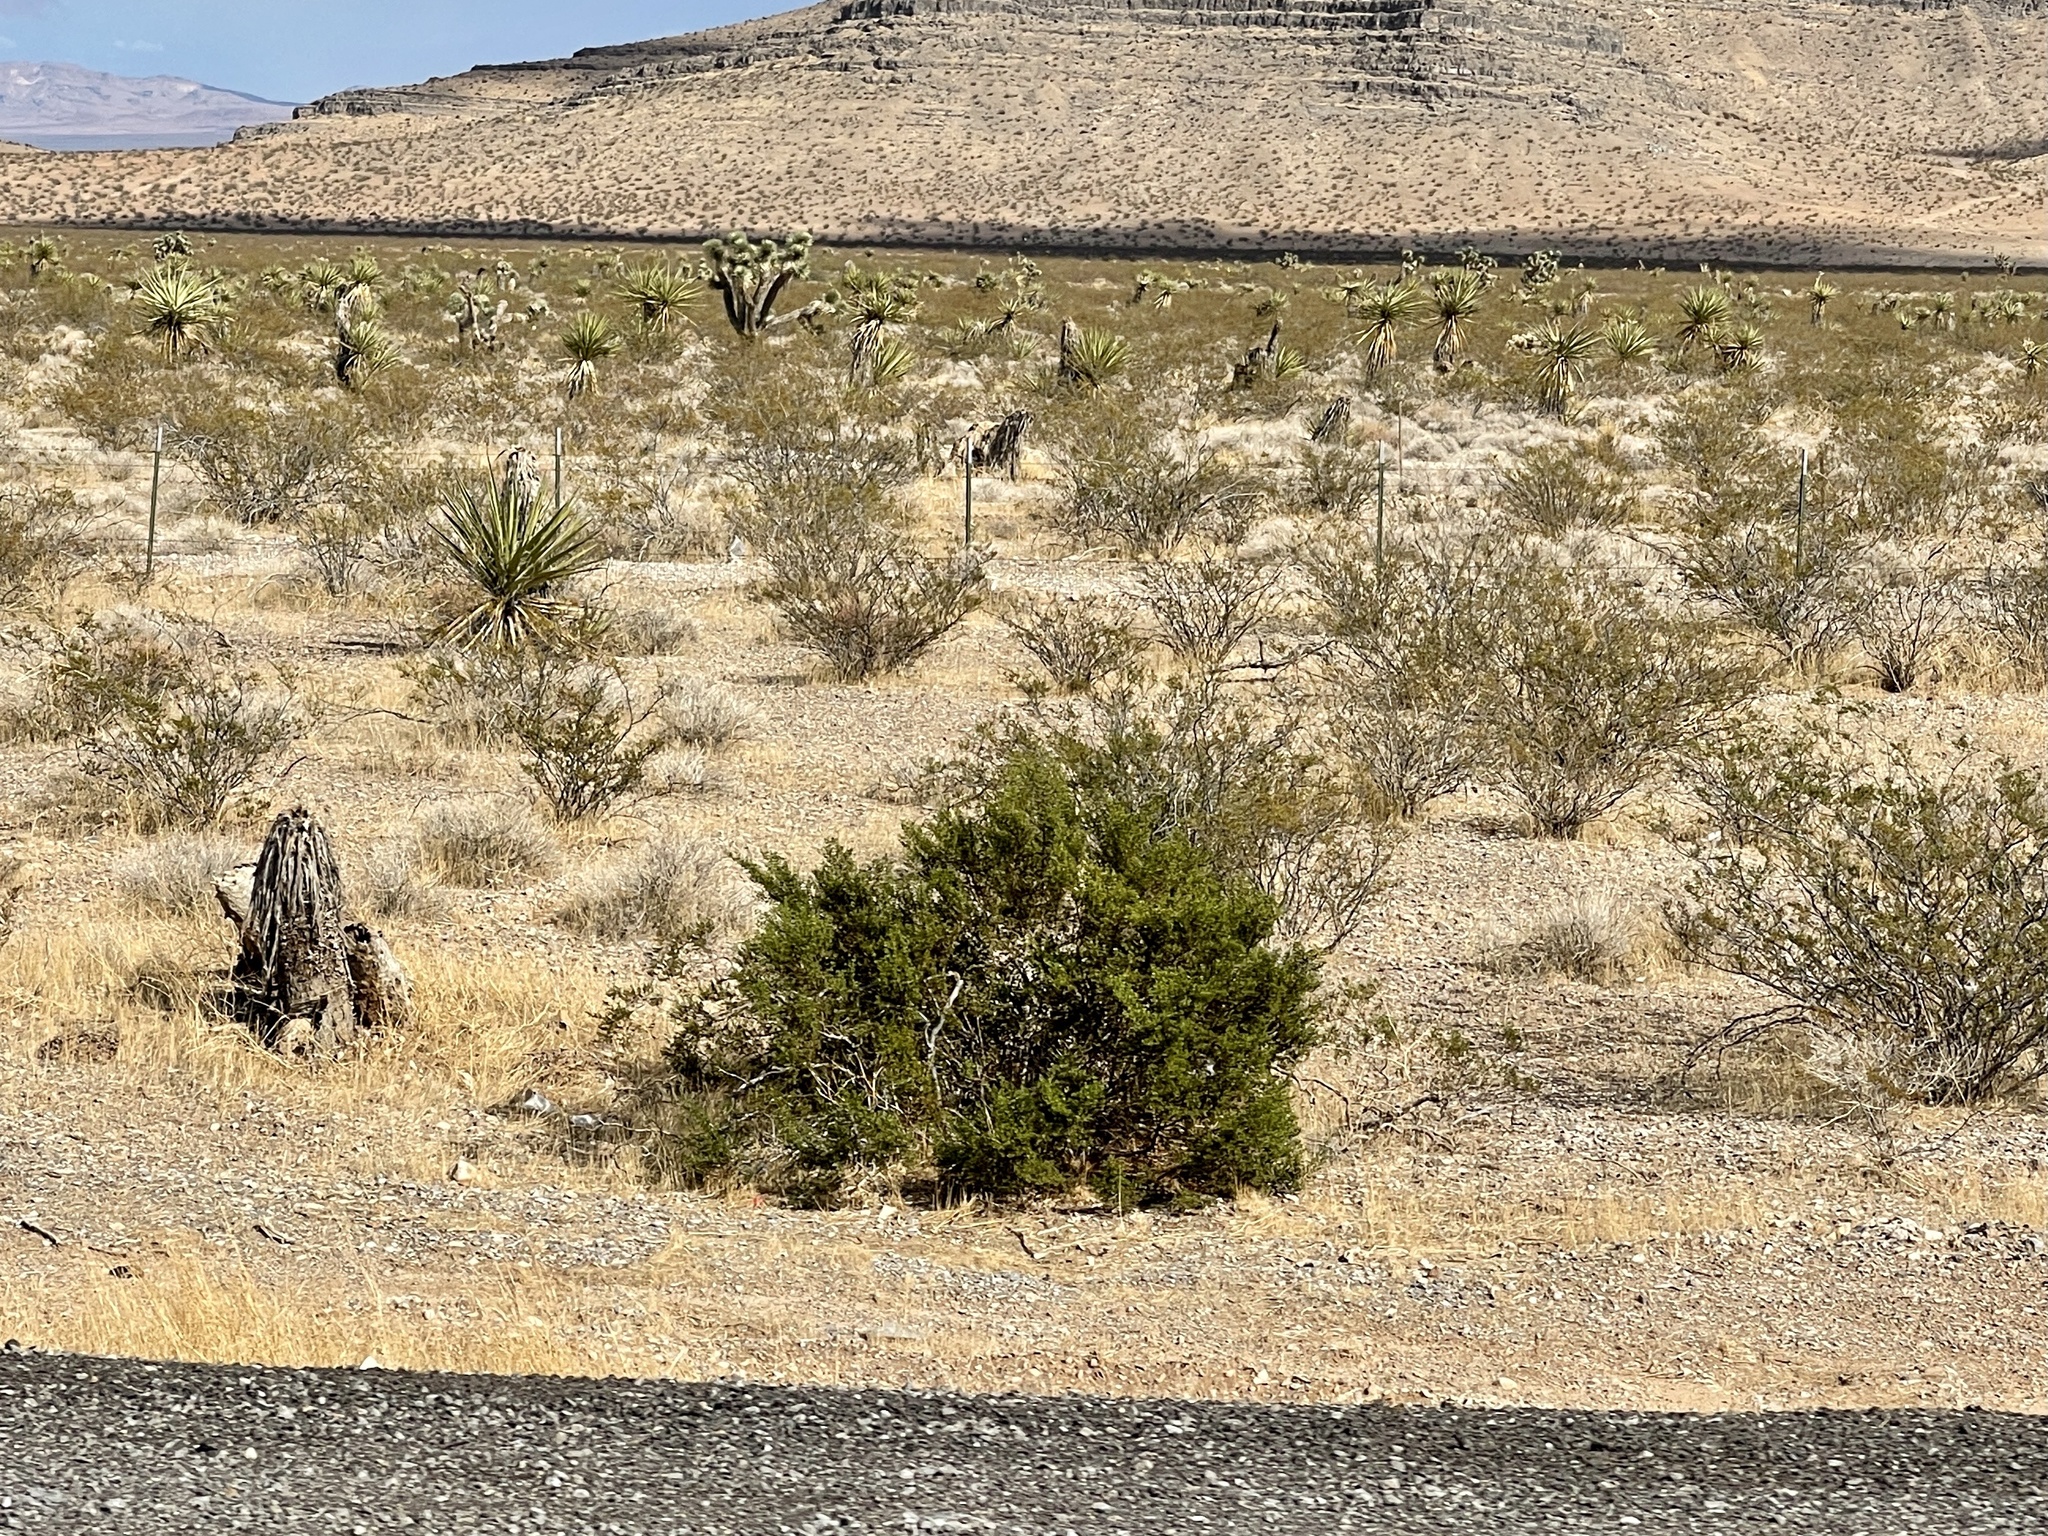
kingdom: Plantae
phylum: Tracheophyta
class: Magnoliopsida
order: Zygophyllales
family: Zygophyllaceae
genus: Larrea
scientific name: Larrea tridentata
